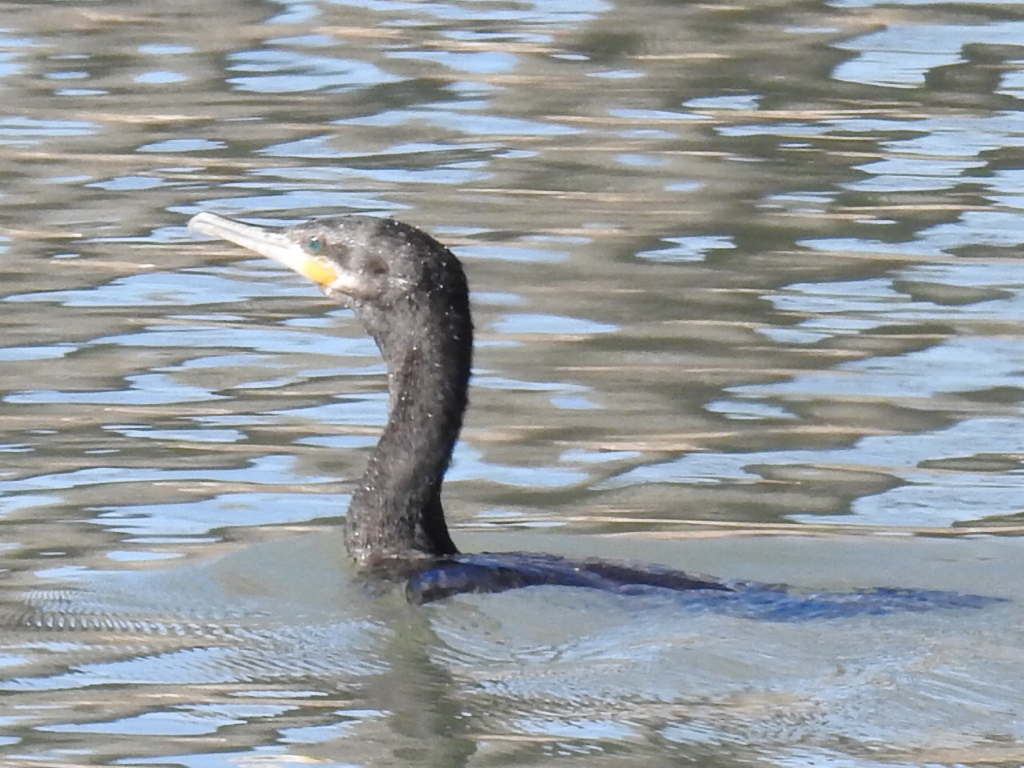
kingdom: Animalia
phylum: Chordata
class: Aves
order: Suliformes
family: Phalacrocoracidae
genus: Phalacrocorax
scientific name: Phalacrocorax brasilianus
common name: Neotropic cormorant
